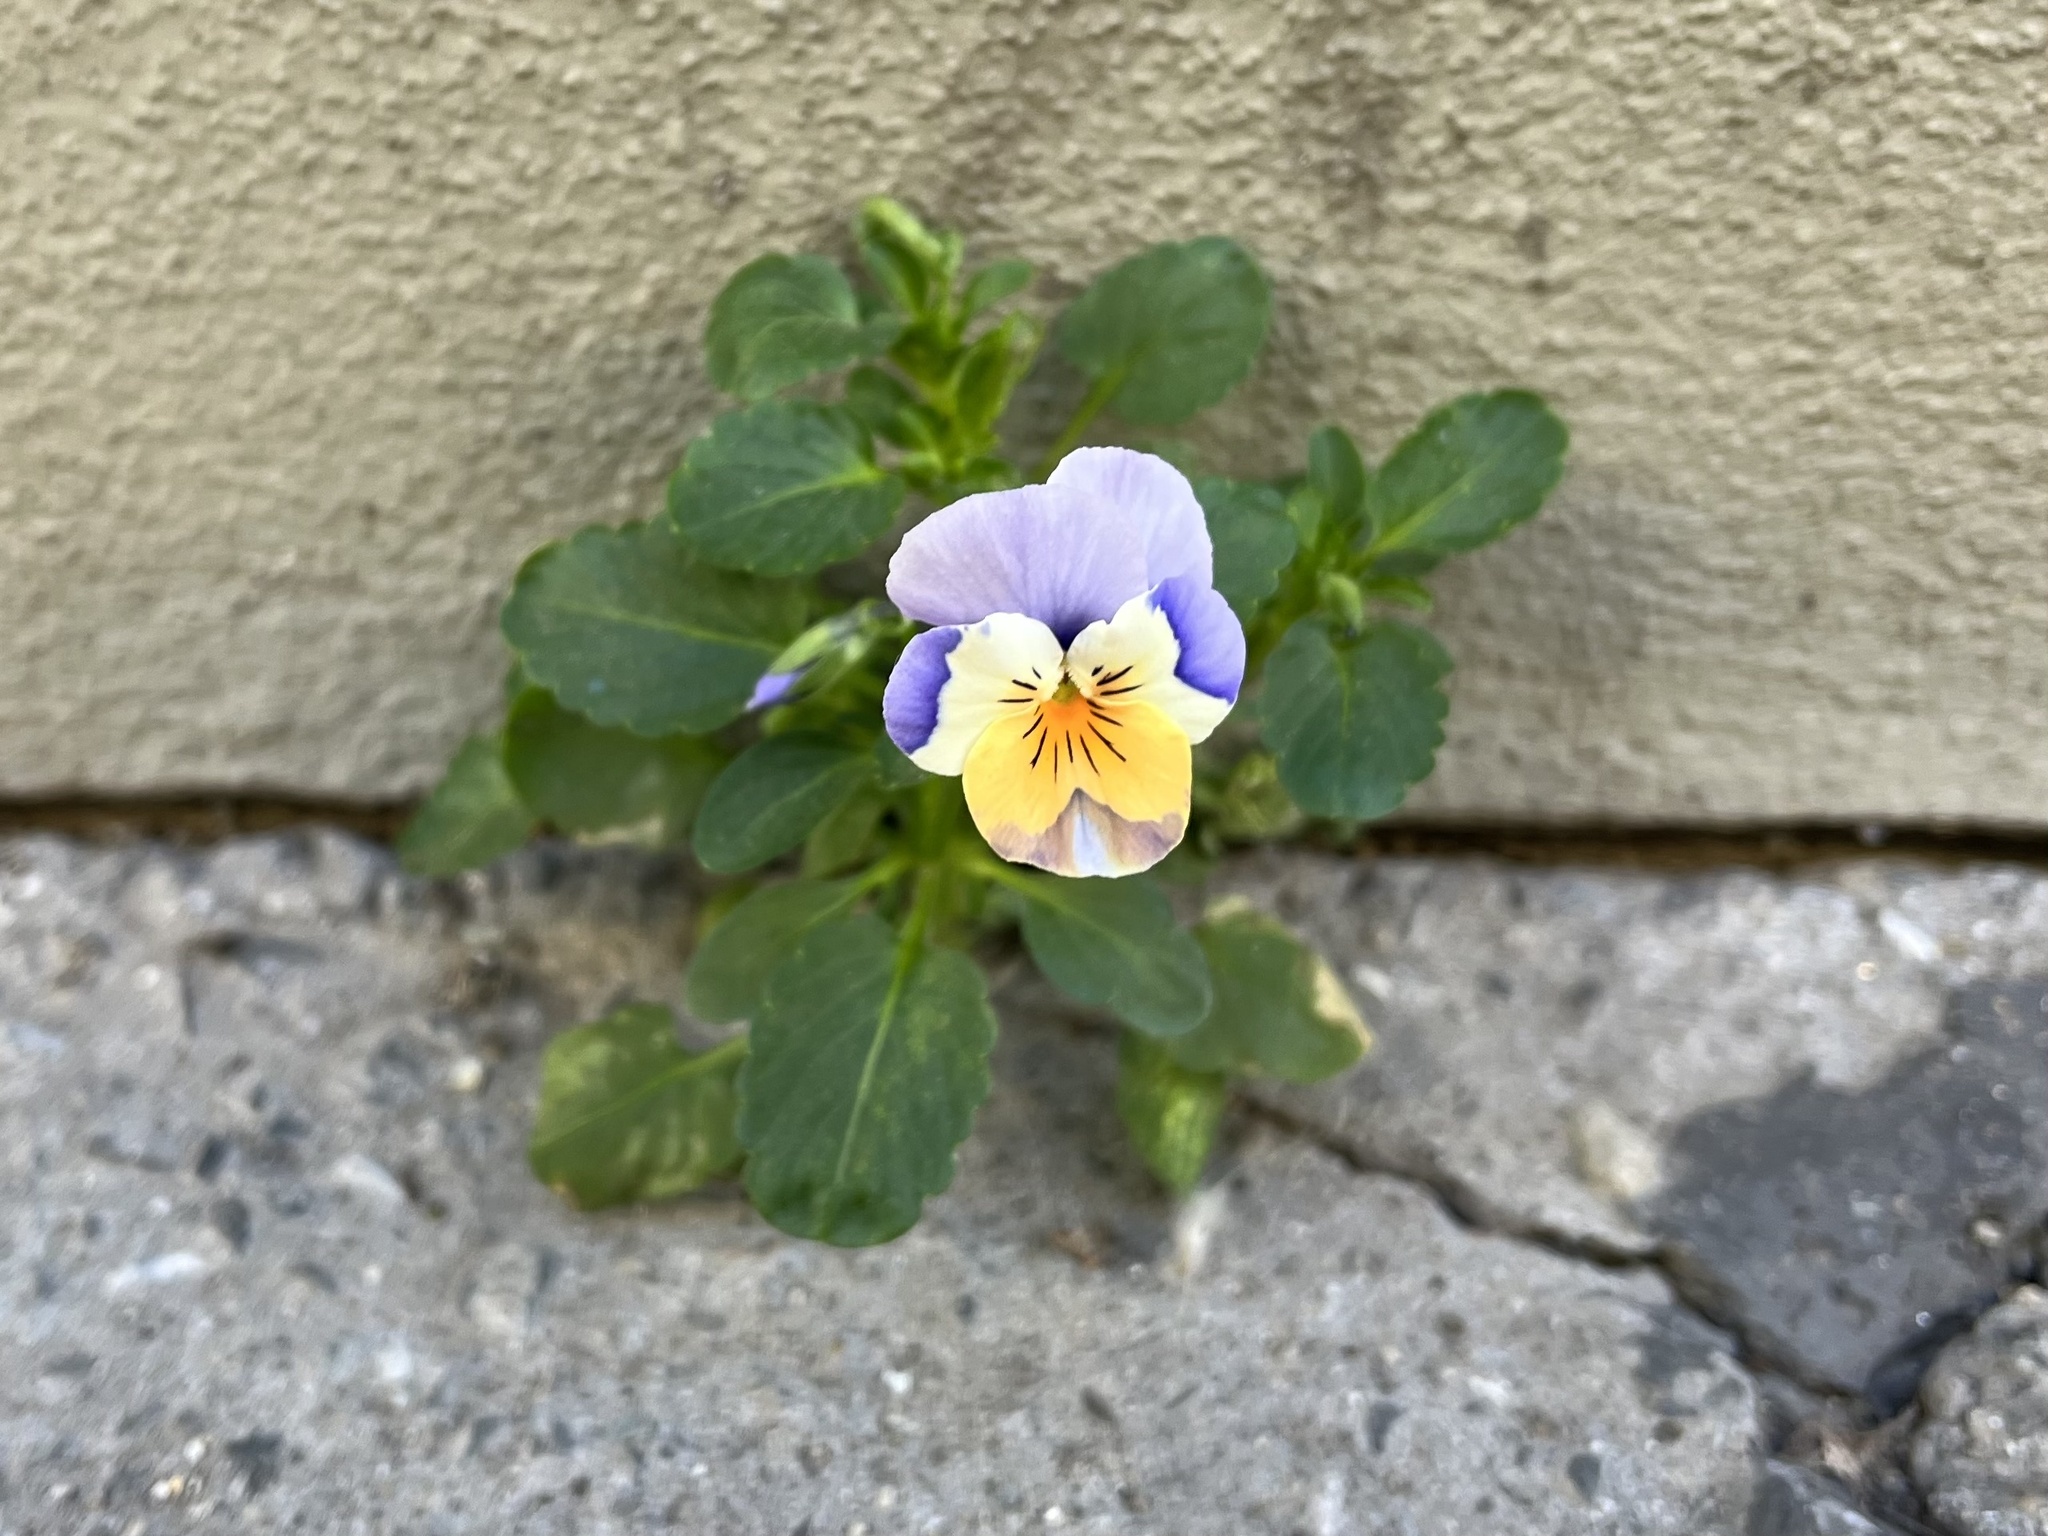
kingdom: Plantae
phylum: Tracheophyta
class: Magnoliopsida
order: Malpighiales
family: Violaceae
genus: Viola
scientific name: Viola wittrockiana
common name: Garden pansy
